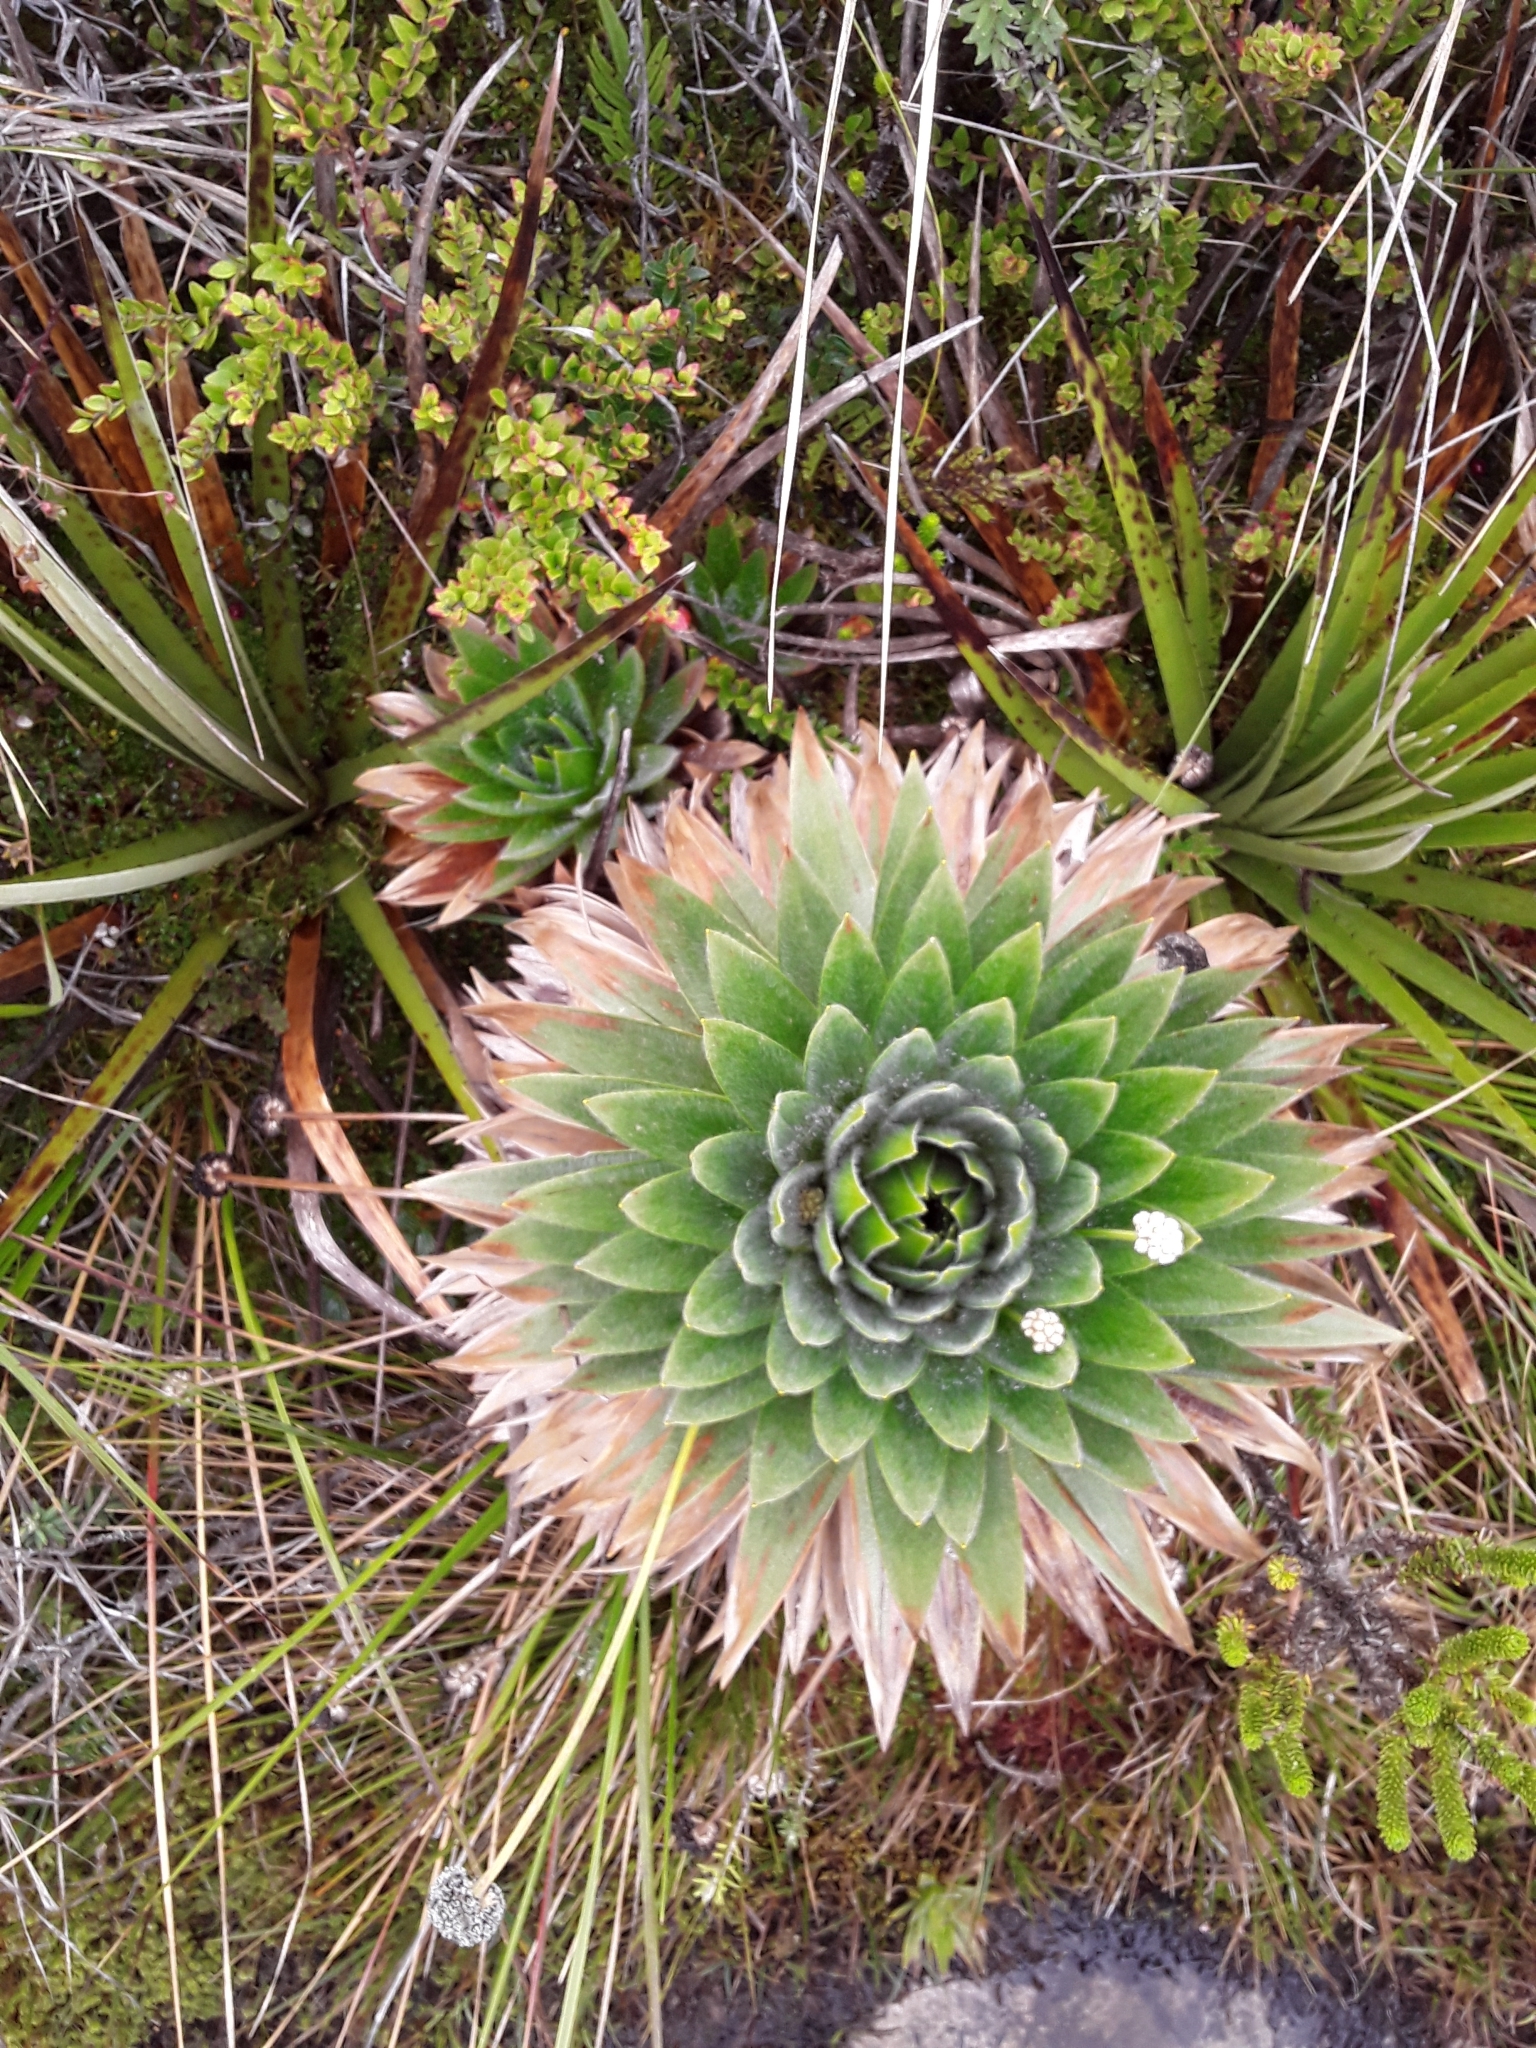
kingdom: Plantae
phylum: Tracheophyta
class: Liliopsida
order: Poales
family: Eriocaulaceae
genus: Paepalanthus
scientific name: Paepalanthus alpinus
